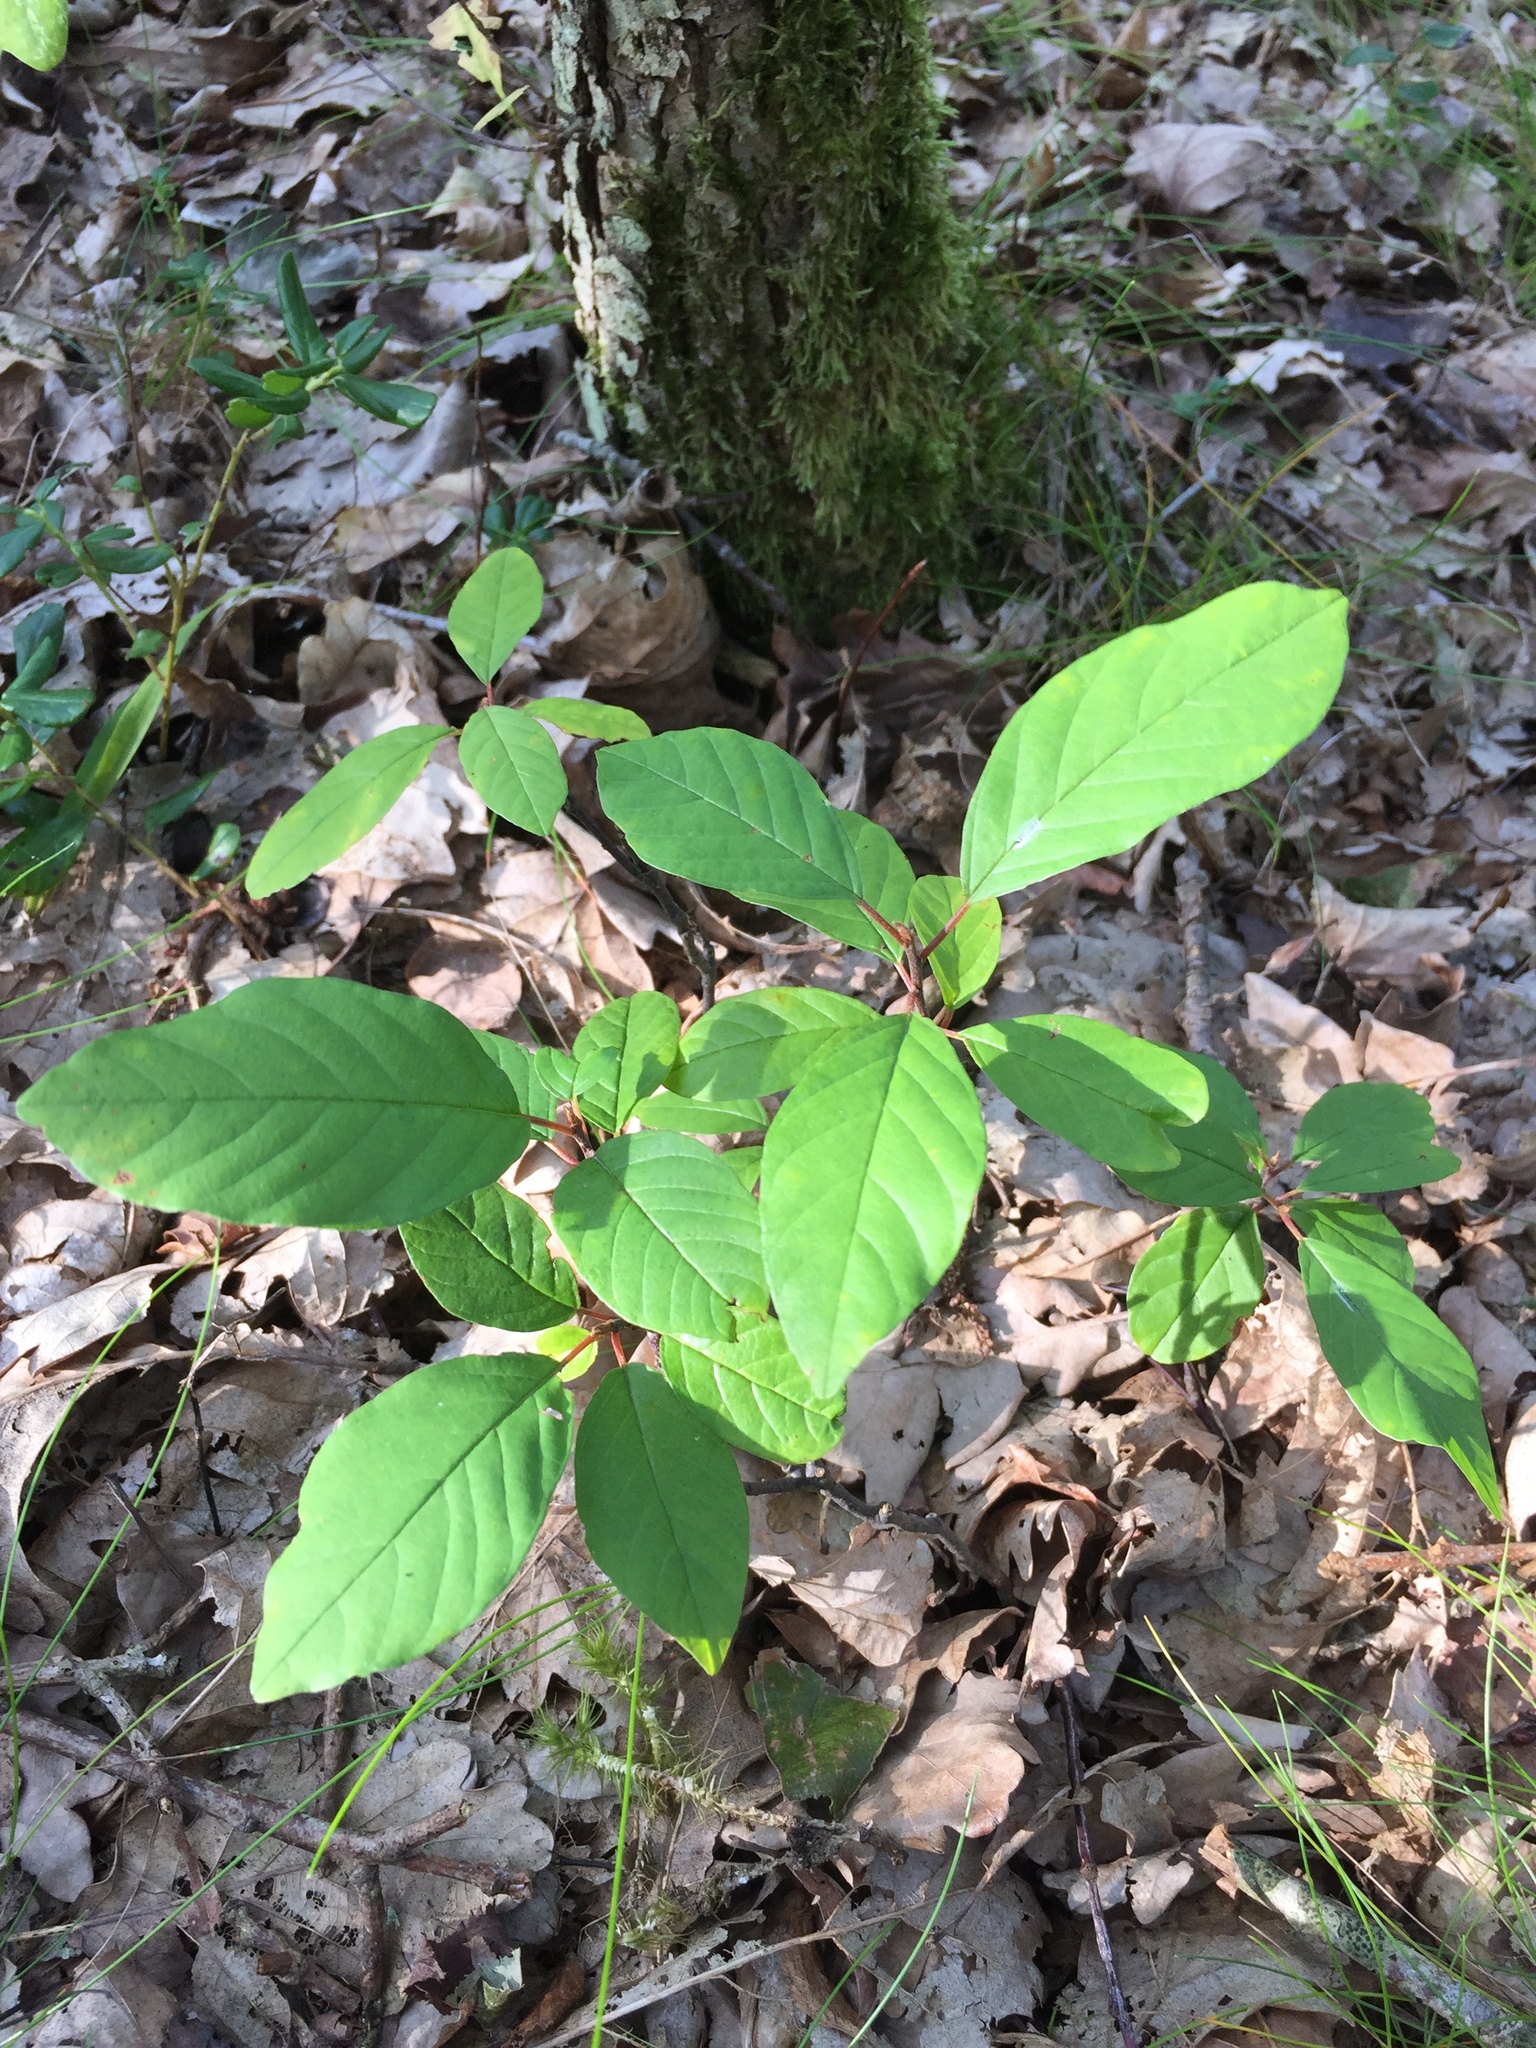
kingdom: Plantae
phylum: Tracheophyta
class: Magnoliopsida
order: Rosales
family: Rhamnaceae
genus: Frangula
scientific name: Frangula alnus
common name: Alder buckthorn
